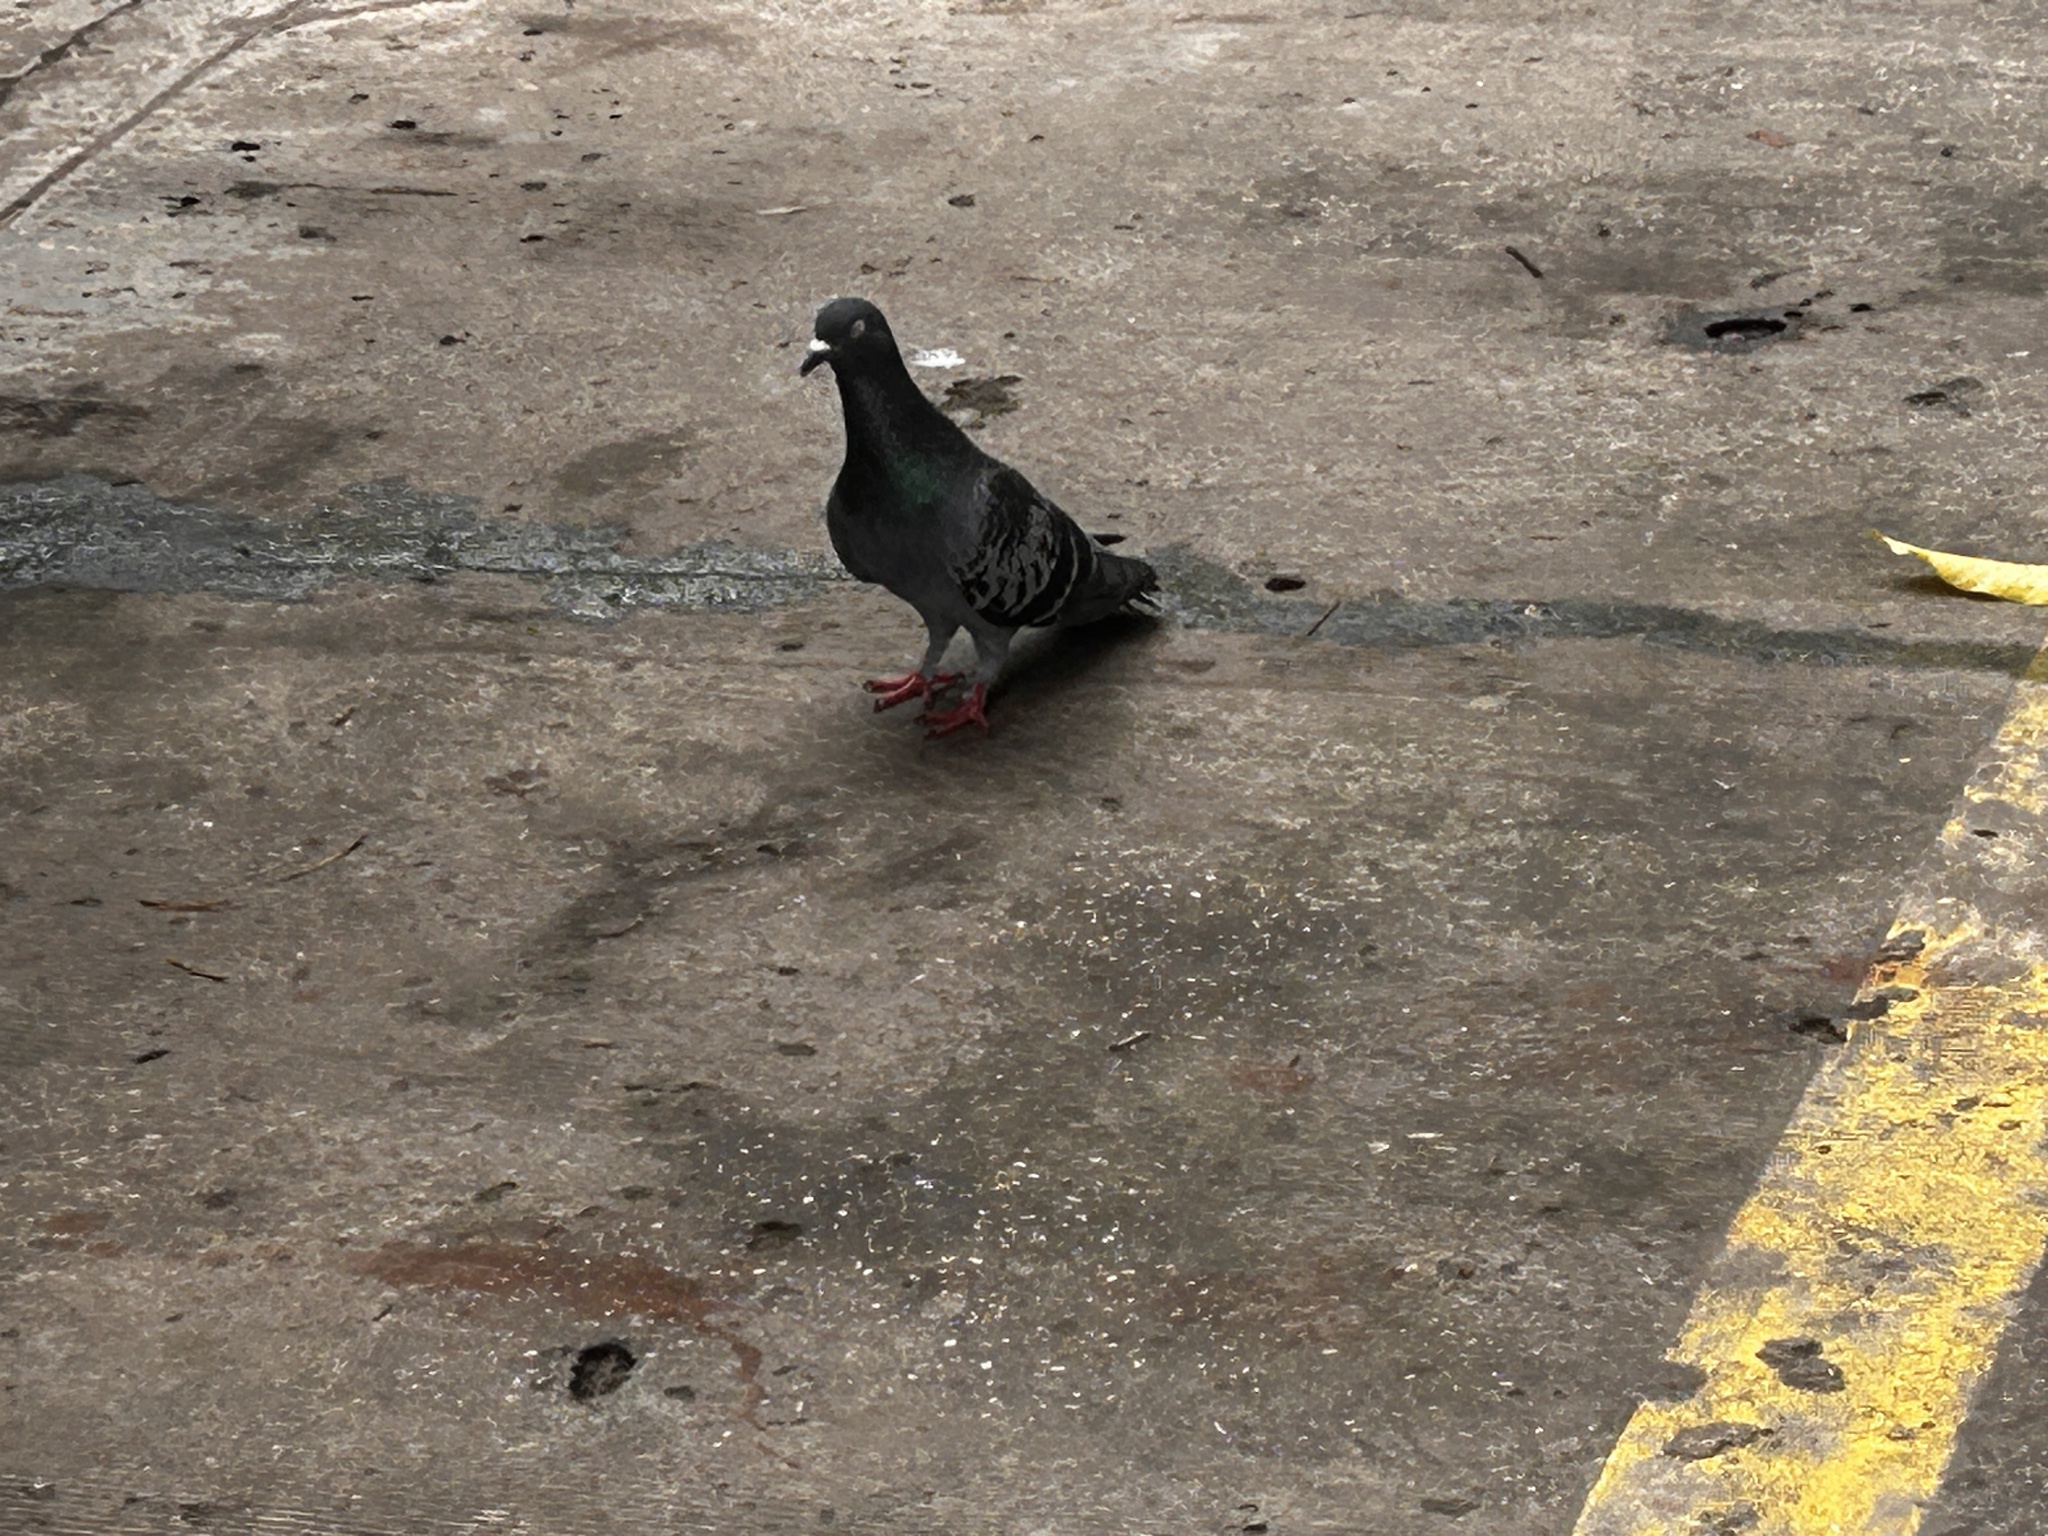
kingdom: Animalia
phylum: Chordata
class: Aves
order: Columbiformes
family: Columbidae
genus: Columba
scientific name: Columba livia
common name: Rock pigeon
